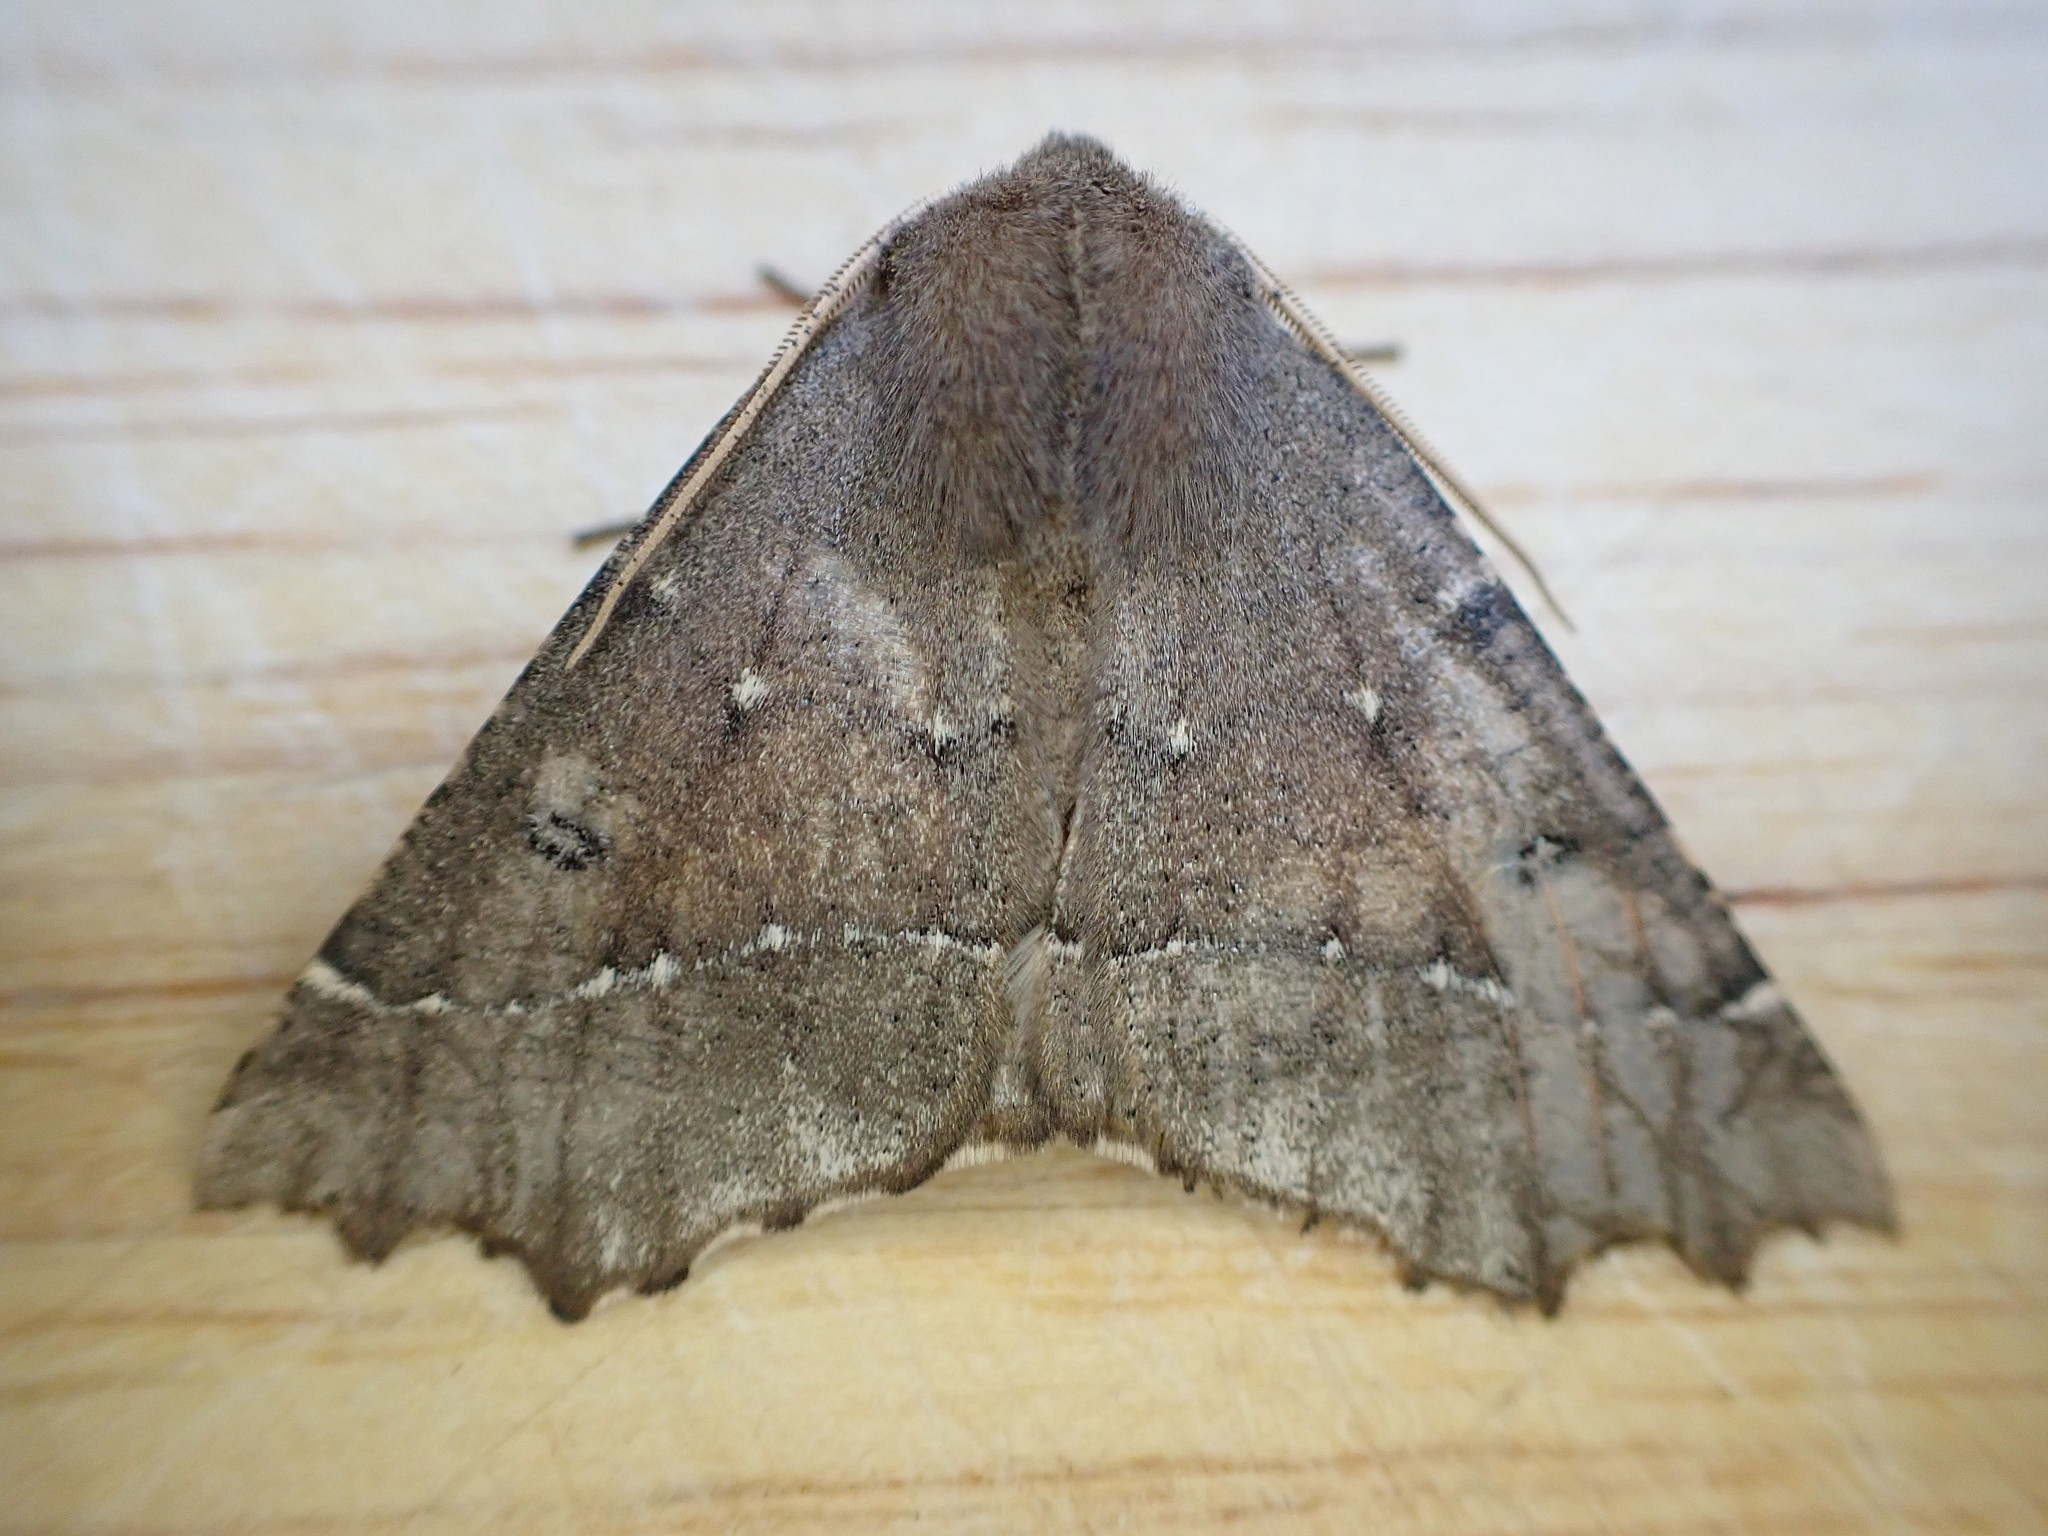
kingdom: Animalia
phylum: Arthropoda
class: Insecta
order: Lepidoptera
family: Geometridae
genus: Odontopera
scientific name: Odontopera bidentata
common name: Scalloped hazel
